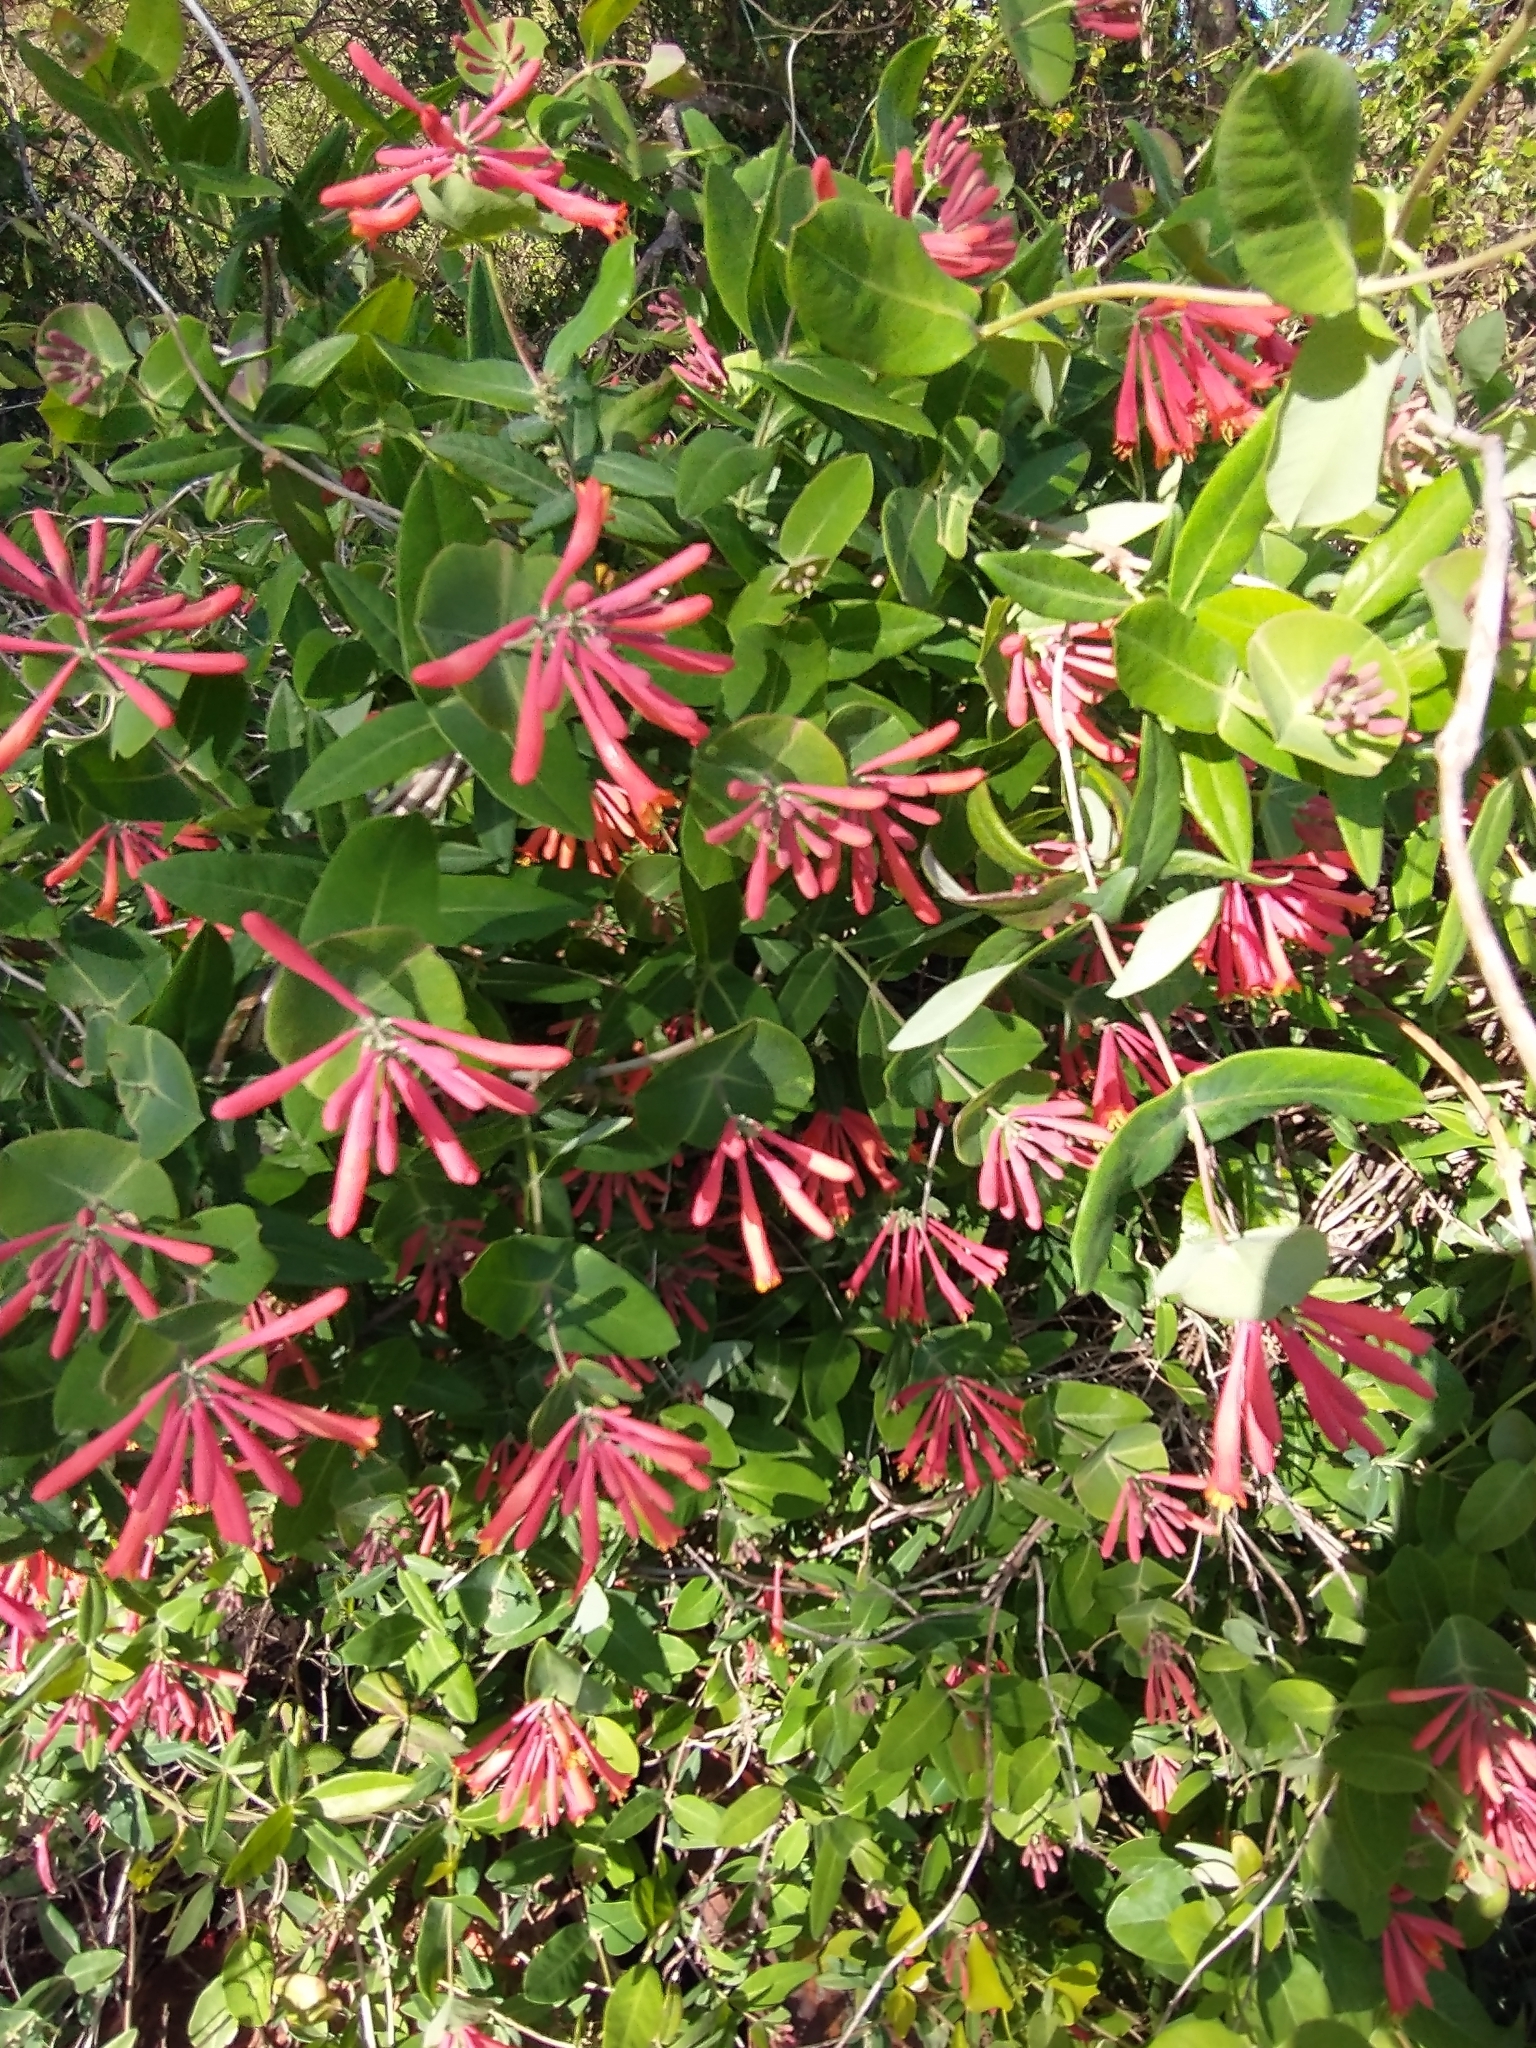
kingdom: Plantae
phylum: Tracheophyta
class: Magnoliopsida
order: Dipsacales
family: Caprifoliaceae
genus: Lonicera
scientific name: Lonicera sempervirens
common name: Coral honeysuckle
